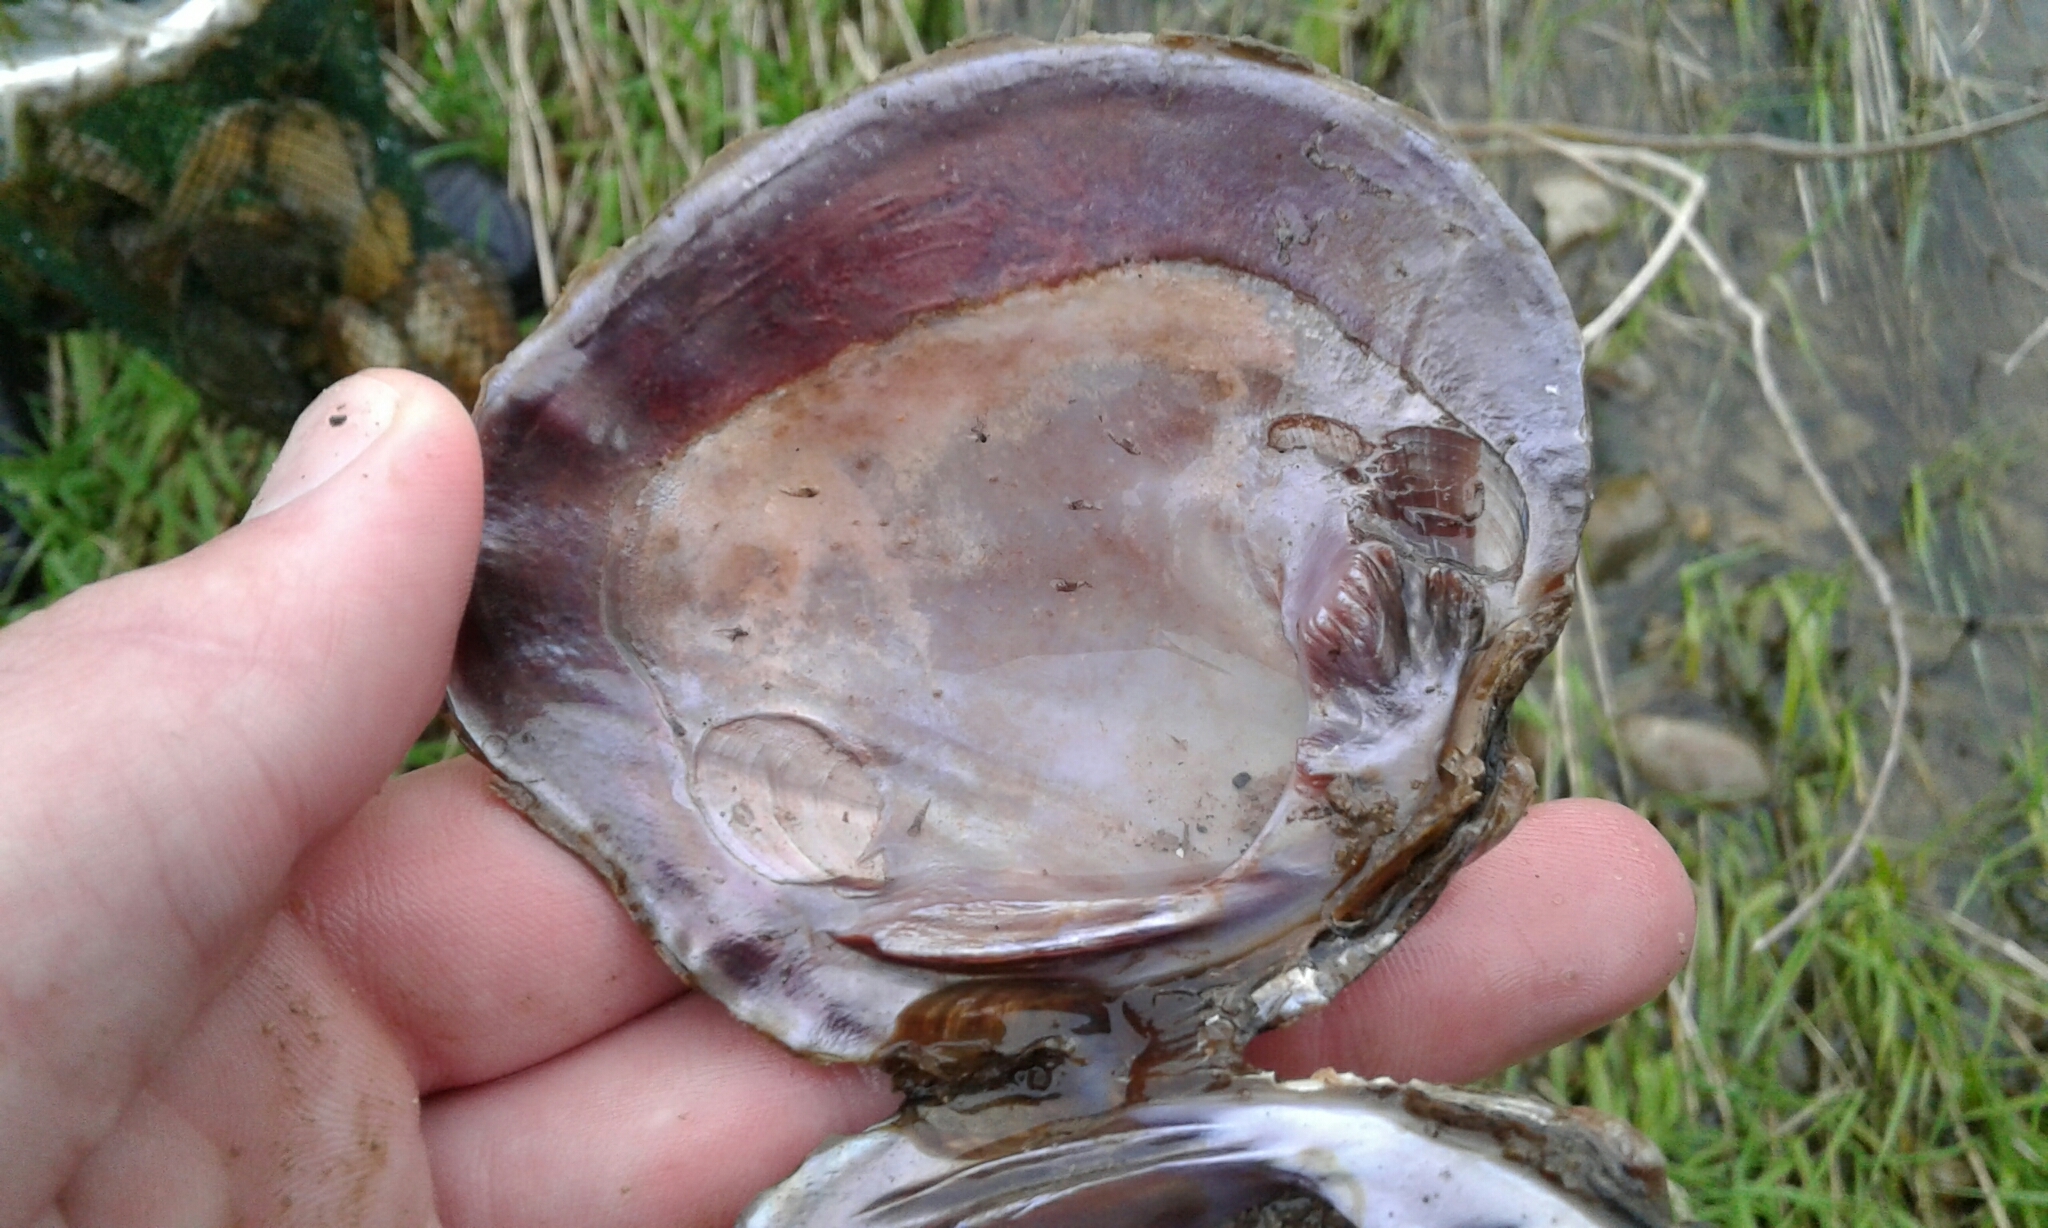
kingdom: Animalia
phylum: Mollusca
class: Bivalvia
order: Unionida
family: Unionidae
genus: Cyclonaias
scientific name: Cyclonaias tuberculata
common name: Purple wartyback
